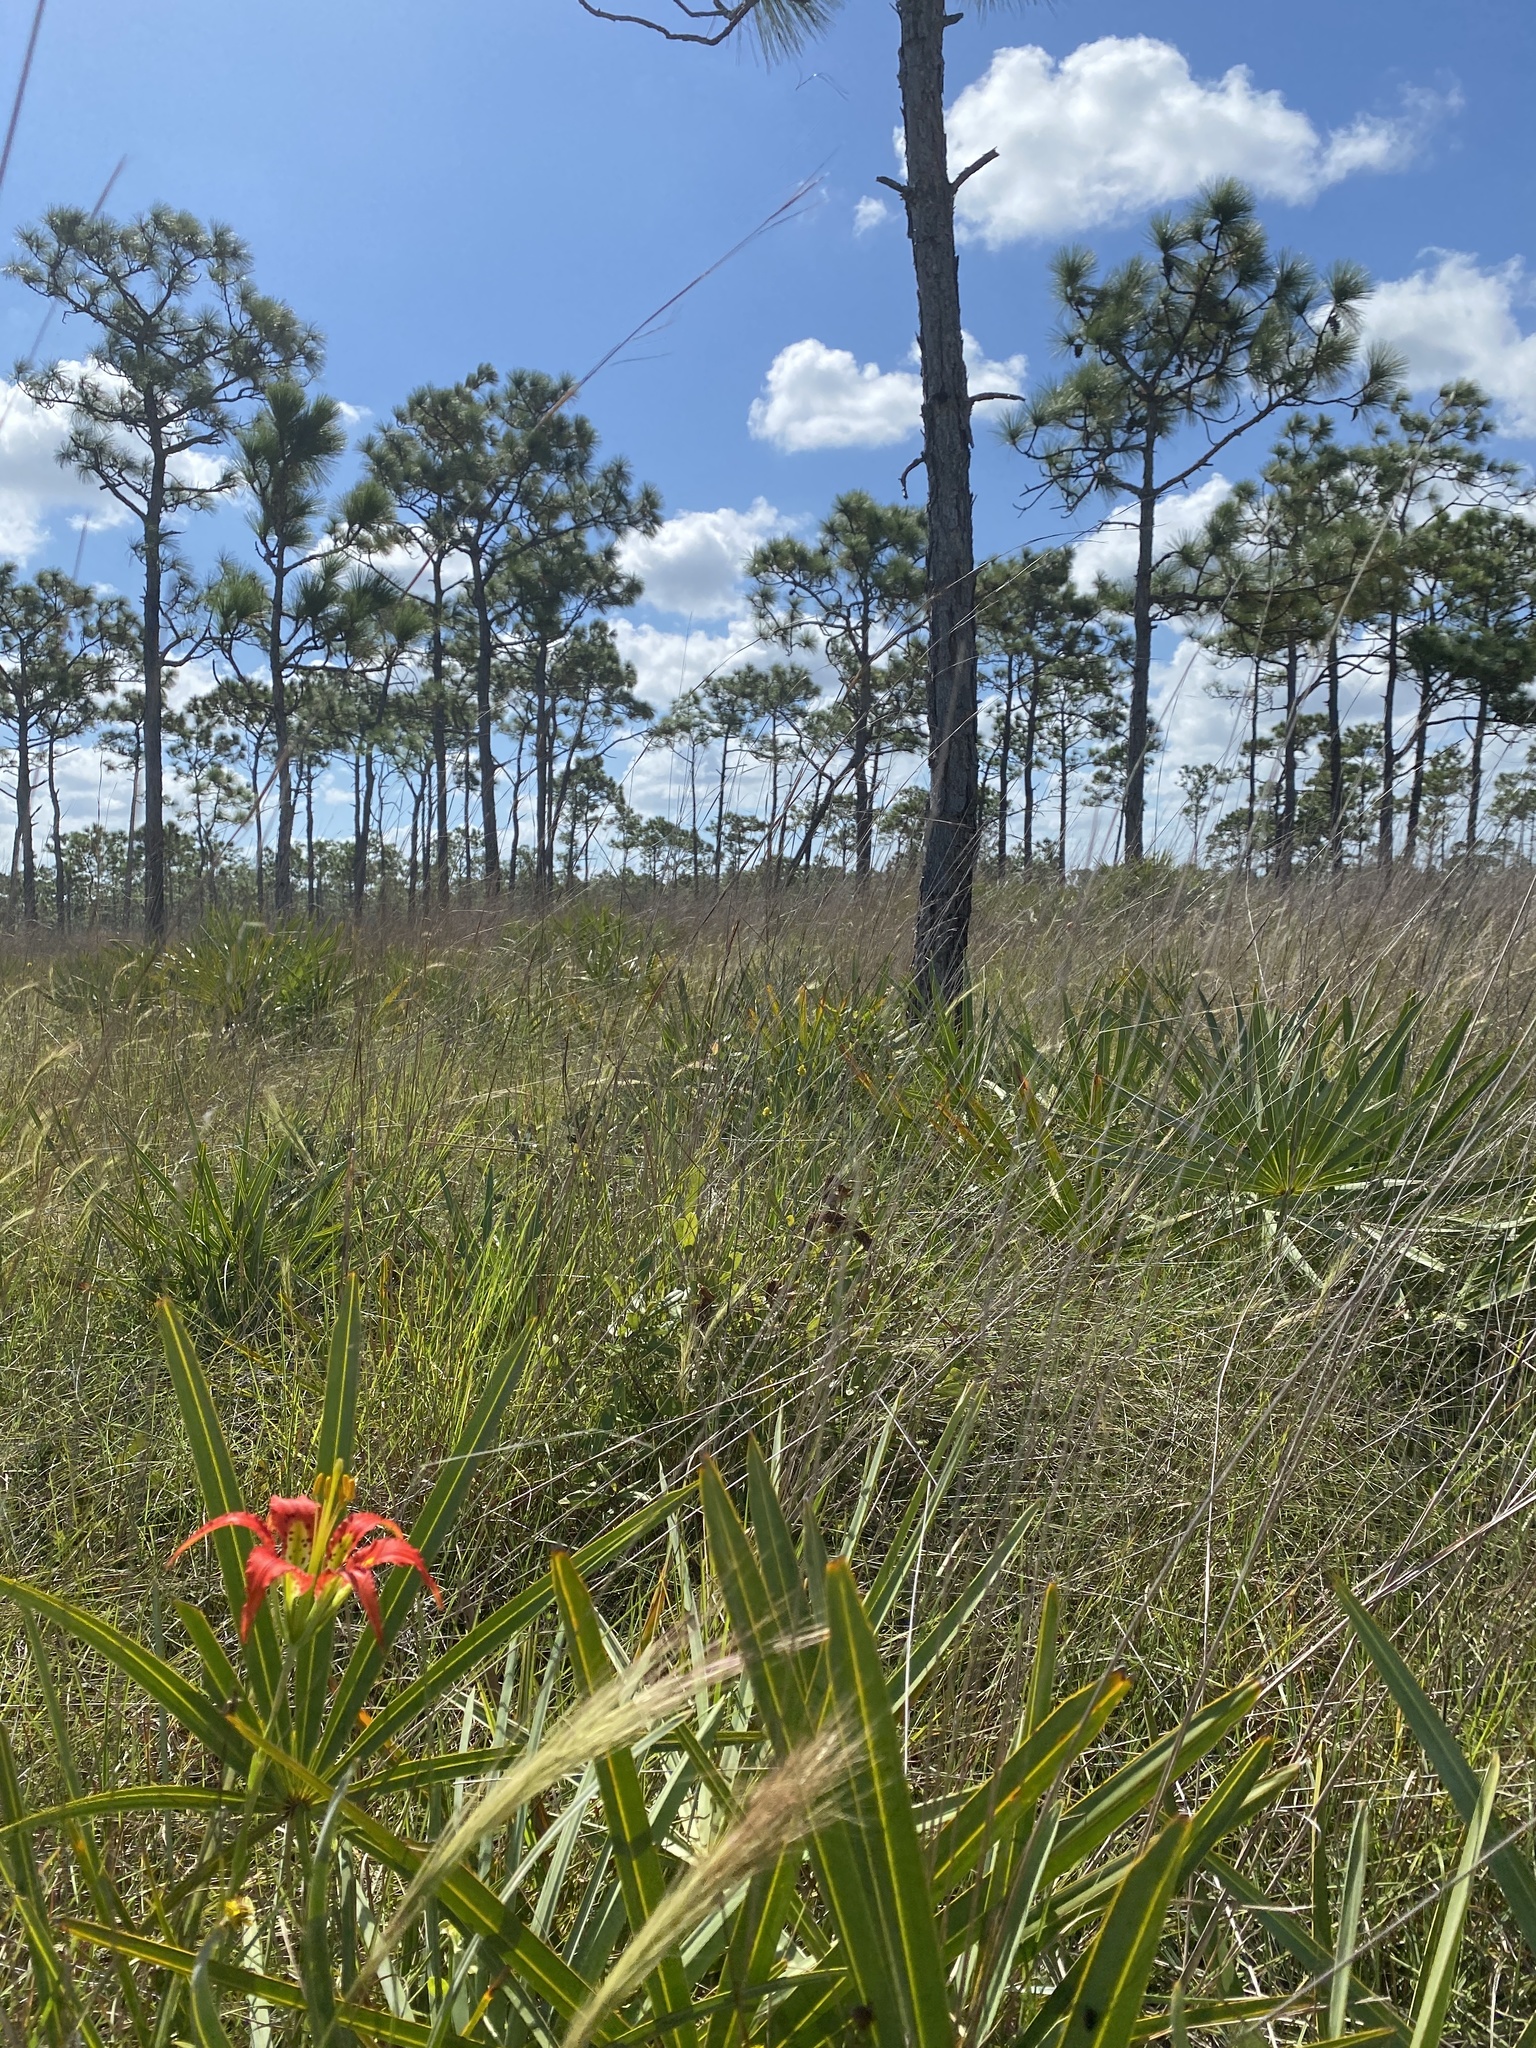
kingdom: Plantae
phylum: Tracheophyta
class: Liliopsida
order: Liliales
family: Liliaceae
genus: Lilium
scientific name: Lilium catesbaei
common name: Catesby's lily
